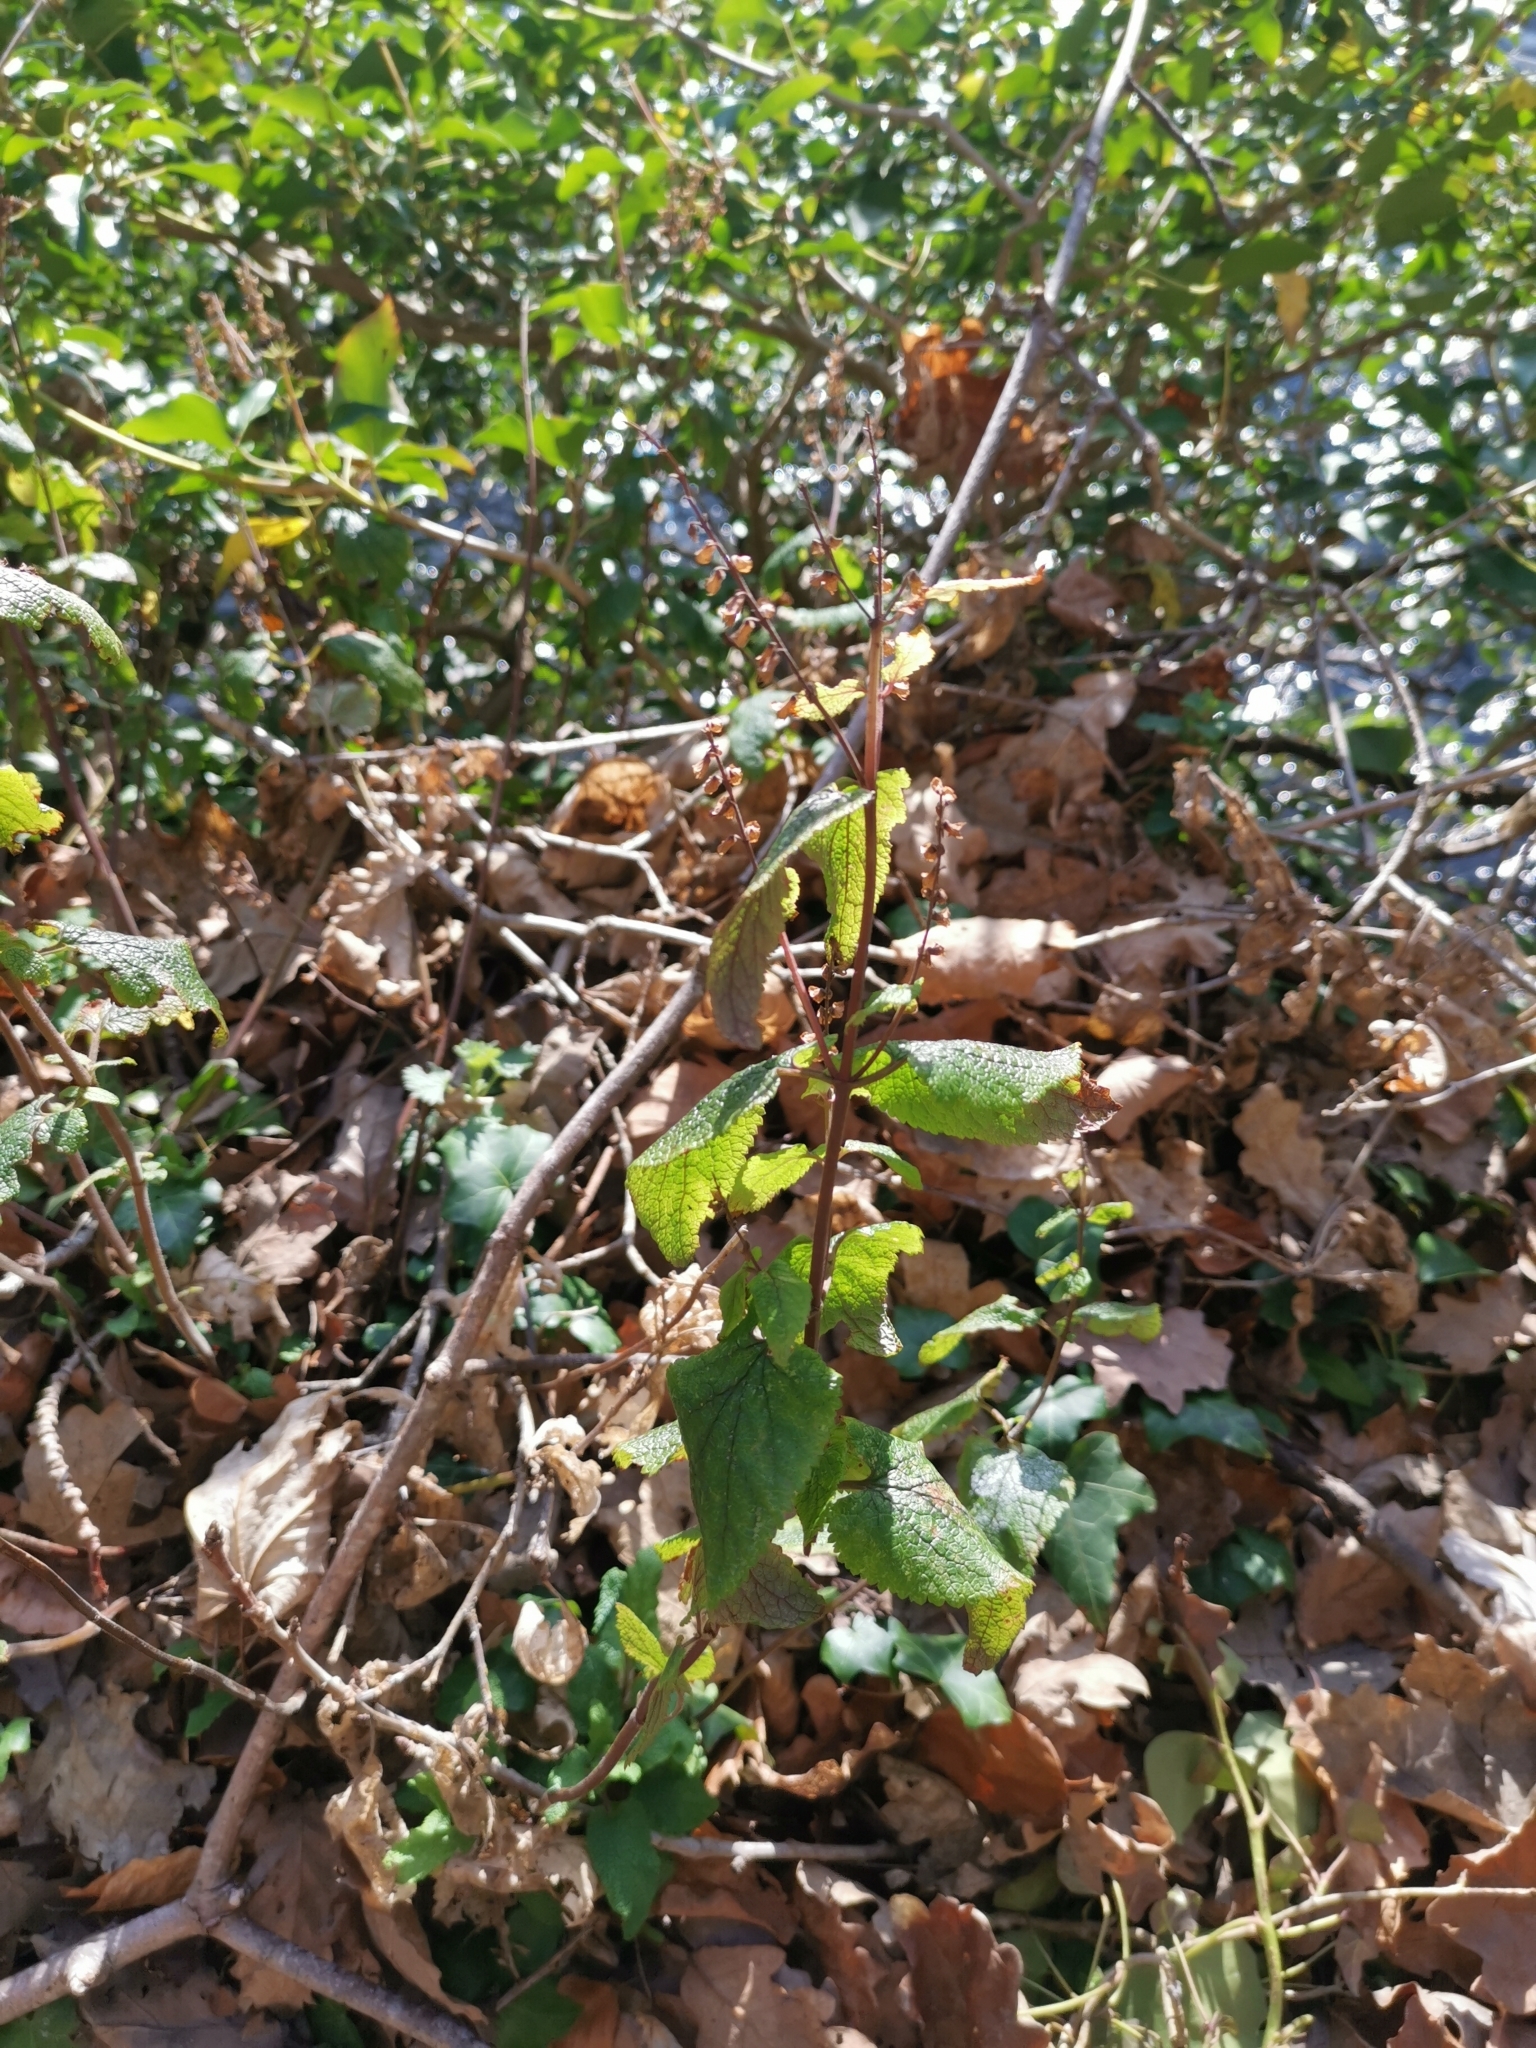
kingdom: Plantae
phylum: Tracheophyta
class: Magnoliopsida
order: Lamiales
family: Lamiaceae
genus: Teucrium
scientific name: Teucrium scorodonia
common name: Woodland germander
